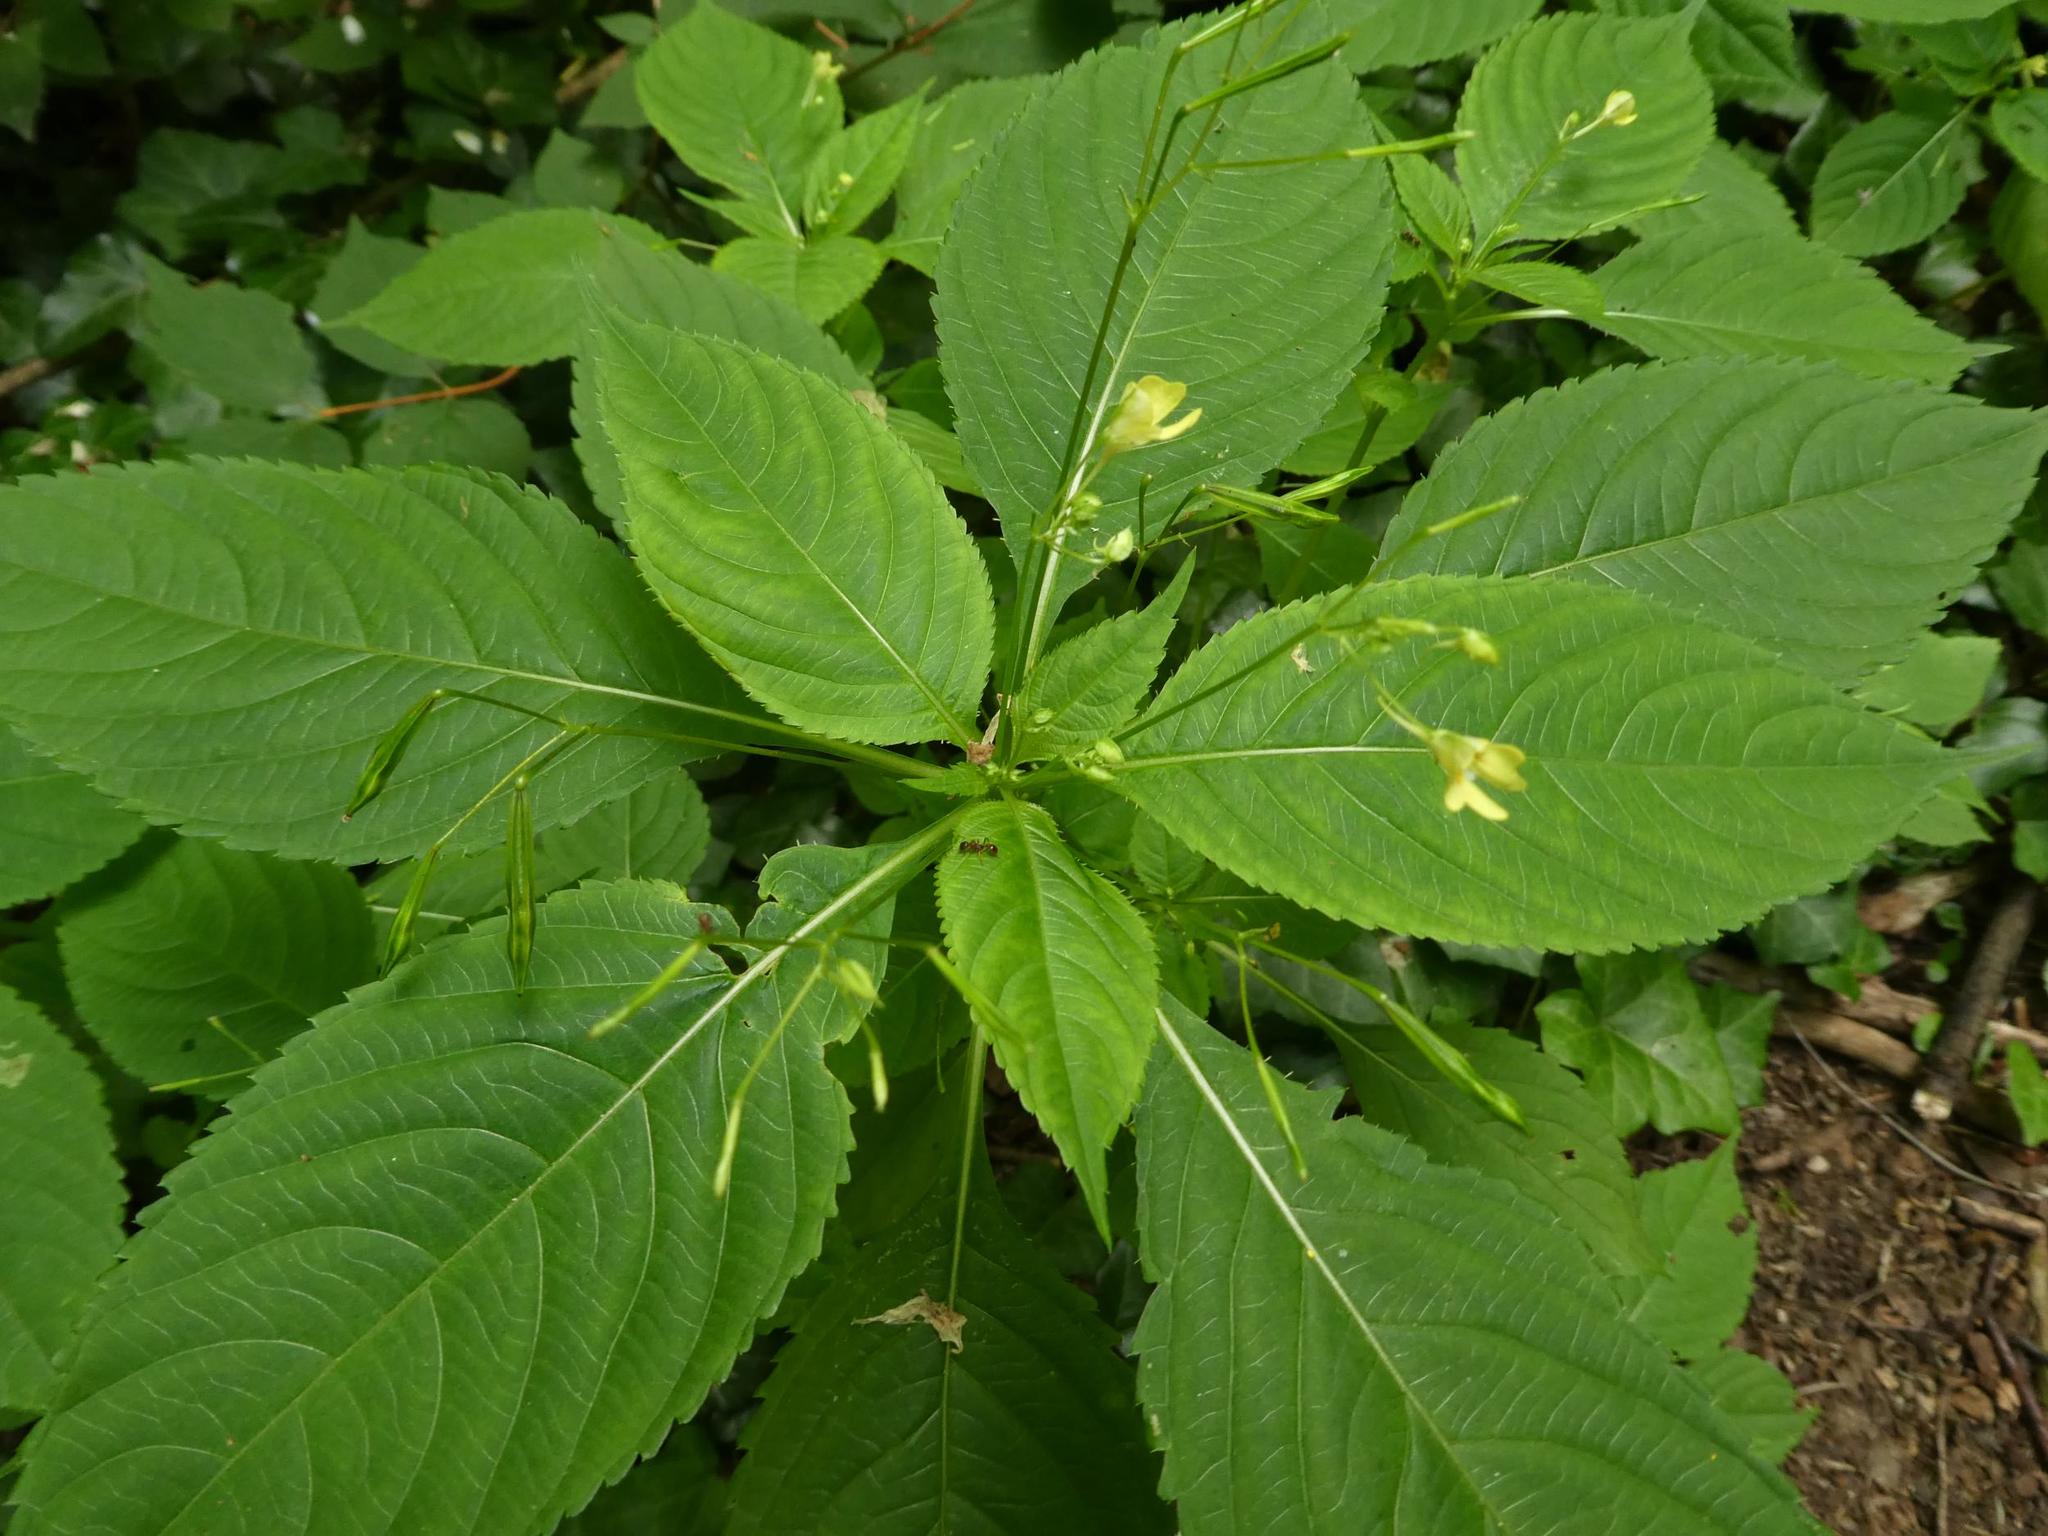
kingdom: Plantae
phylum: Tracheophyta
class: Magnoliopsida
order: Ericales
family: Balsaminaceae
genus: Impatiens
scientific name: Impatiens parviflora
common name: Small balsam
